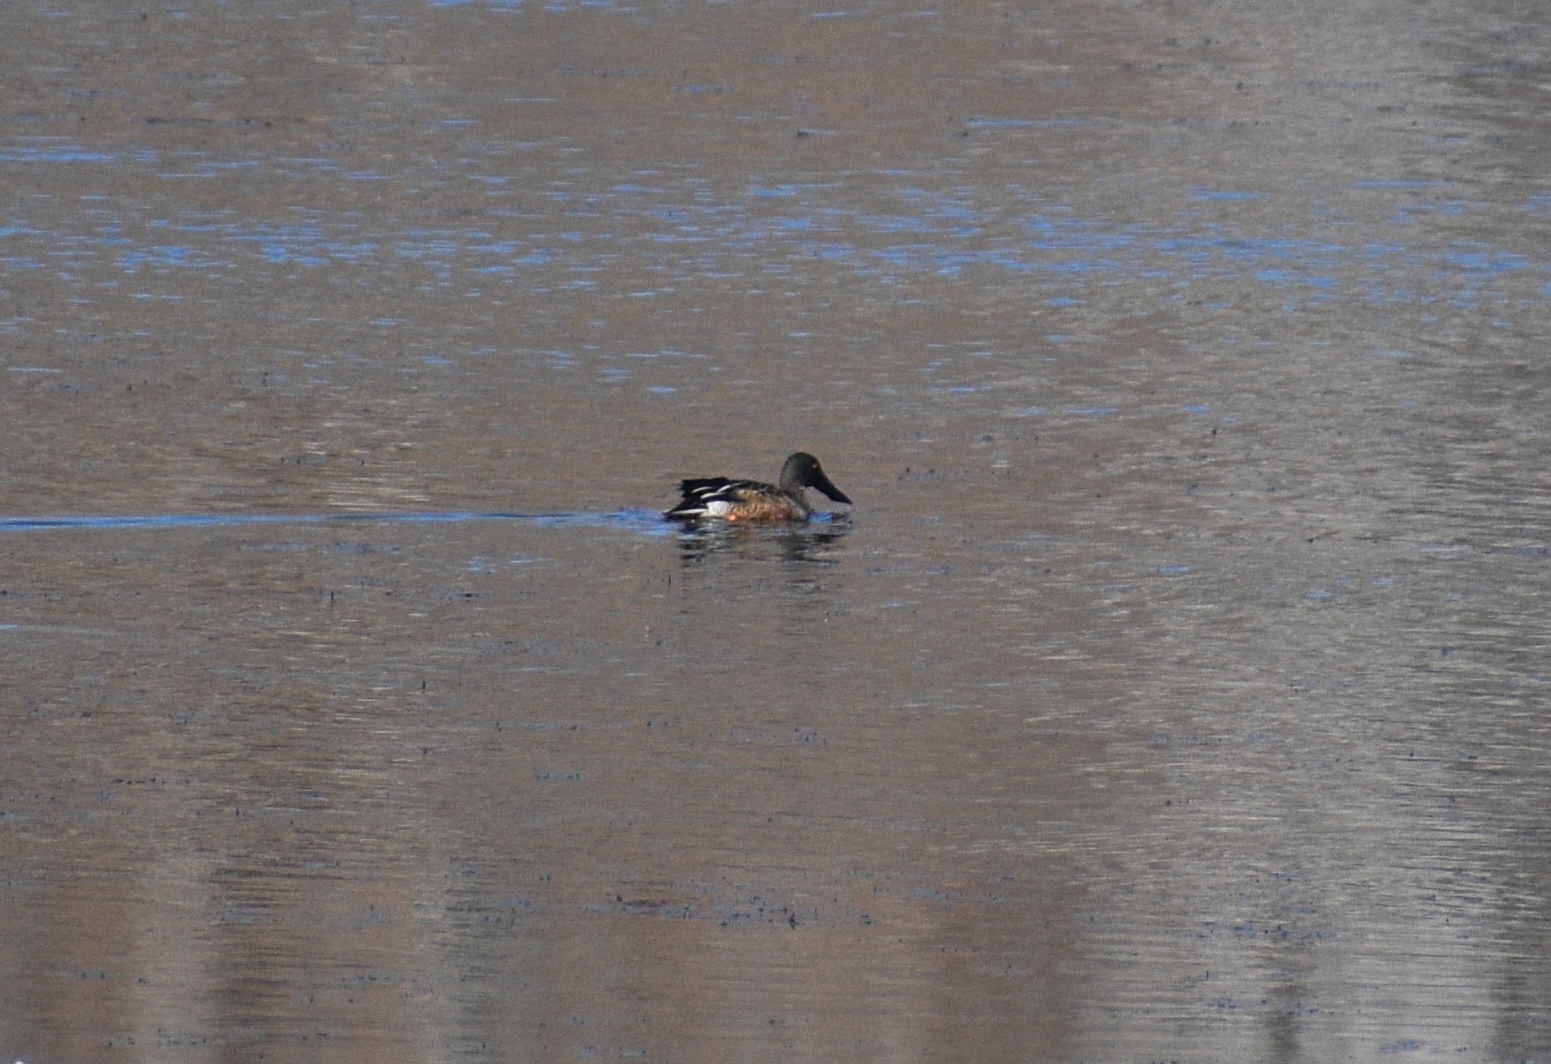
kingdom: Animalia
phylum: Chordata
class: Aves
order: Anseriformes
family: Anatidae
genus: Spatula
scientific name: Spatula clypeata
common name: Northern shoveler
